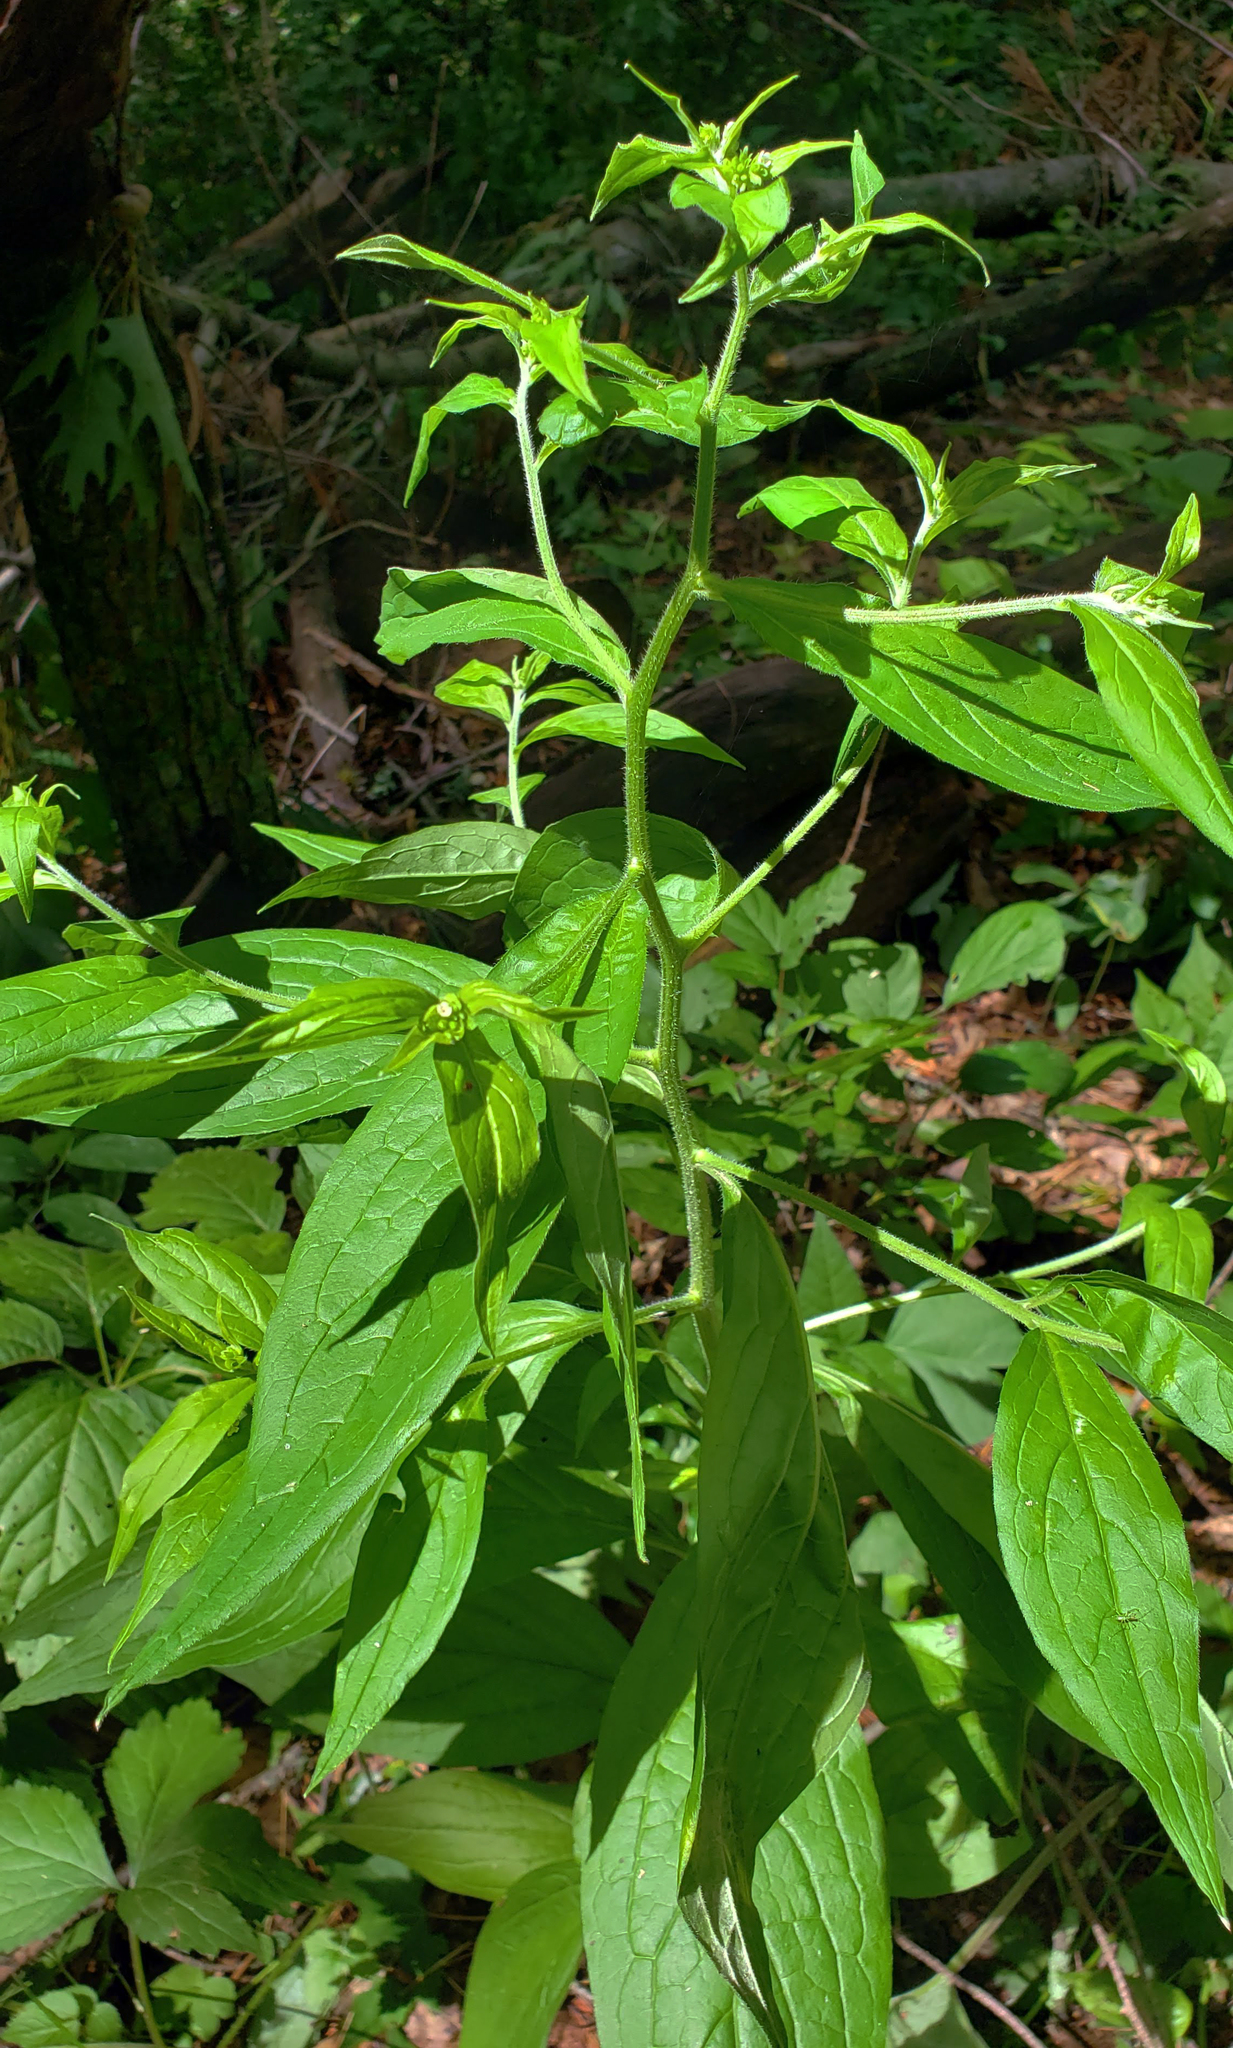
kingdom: Plantae
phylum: Tracheophyta
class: Magnoliopsida
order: Boraginales
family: Boraginaceae
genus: Hackelia
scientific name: Hackelia virginiana
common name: Beggar's-lice
